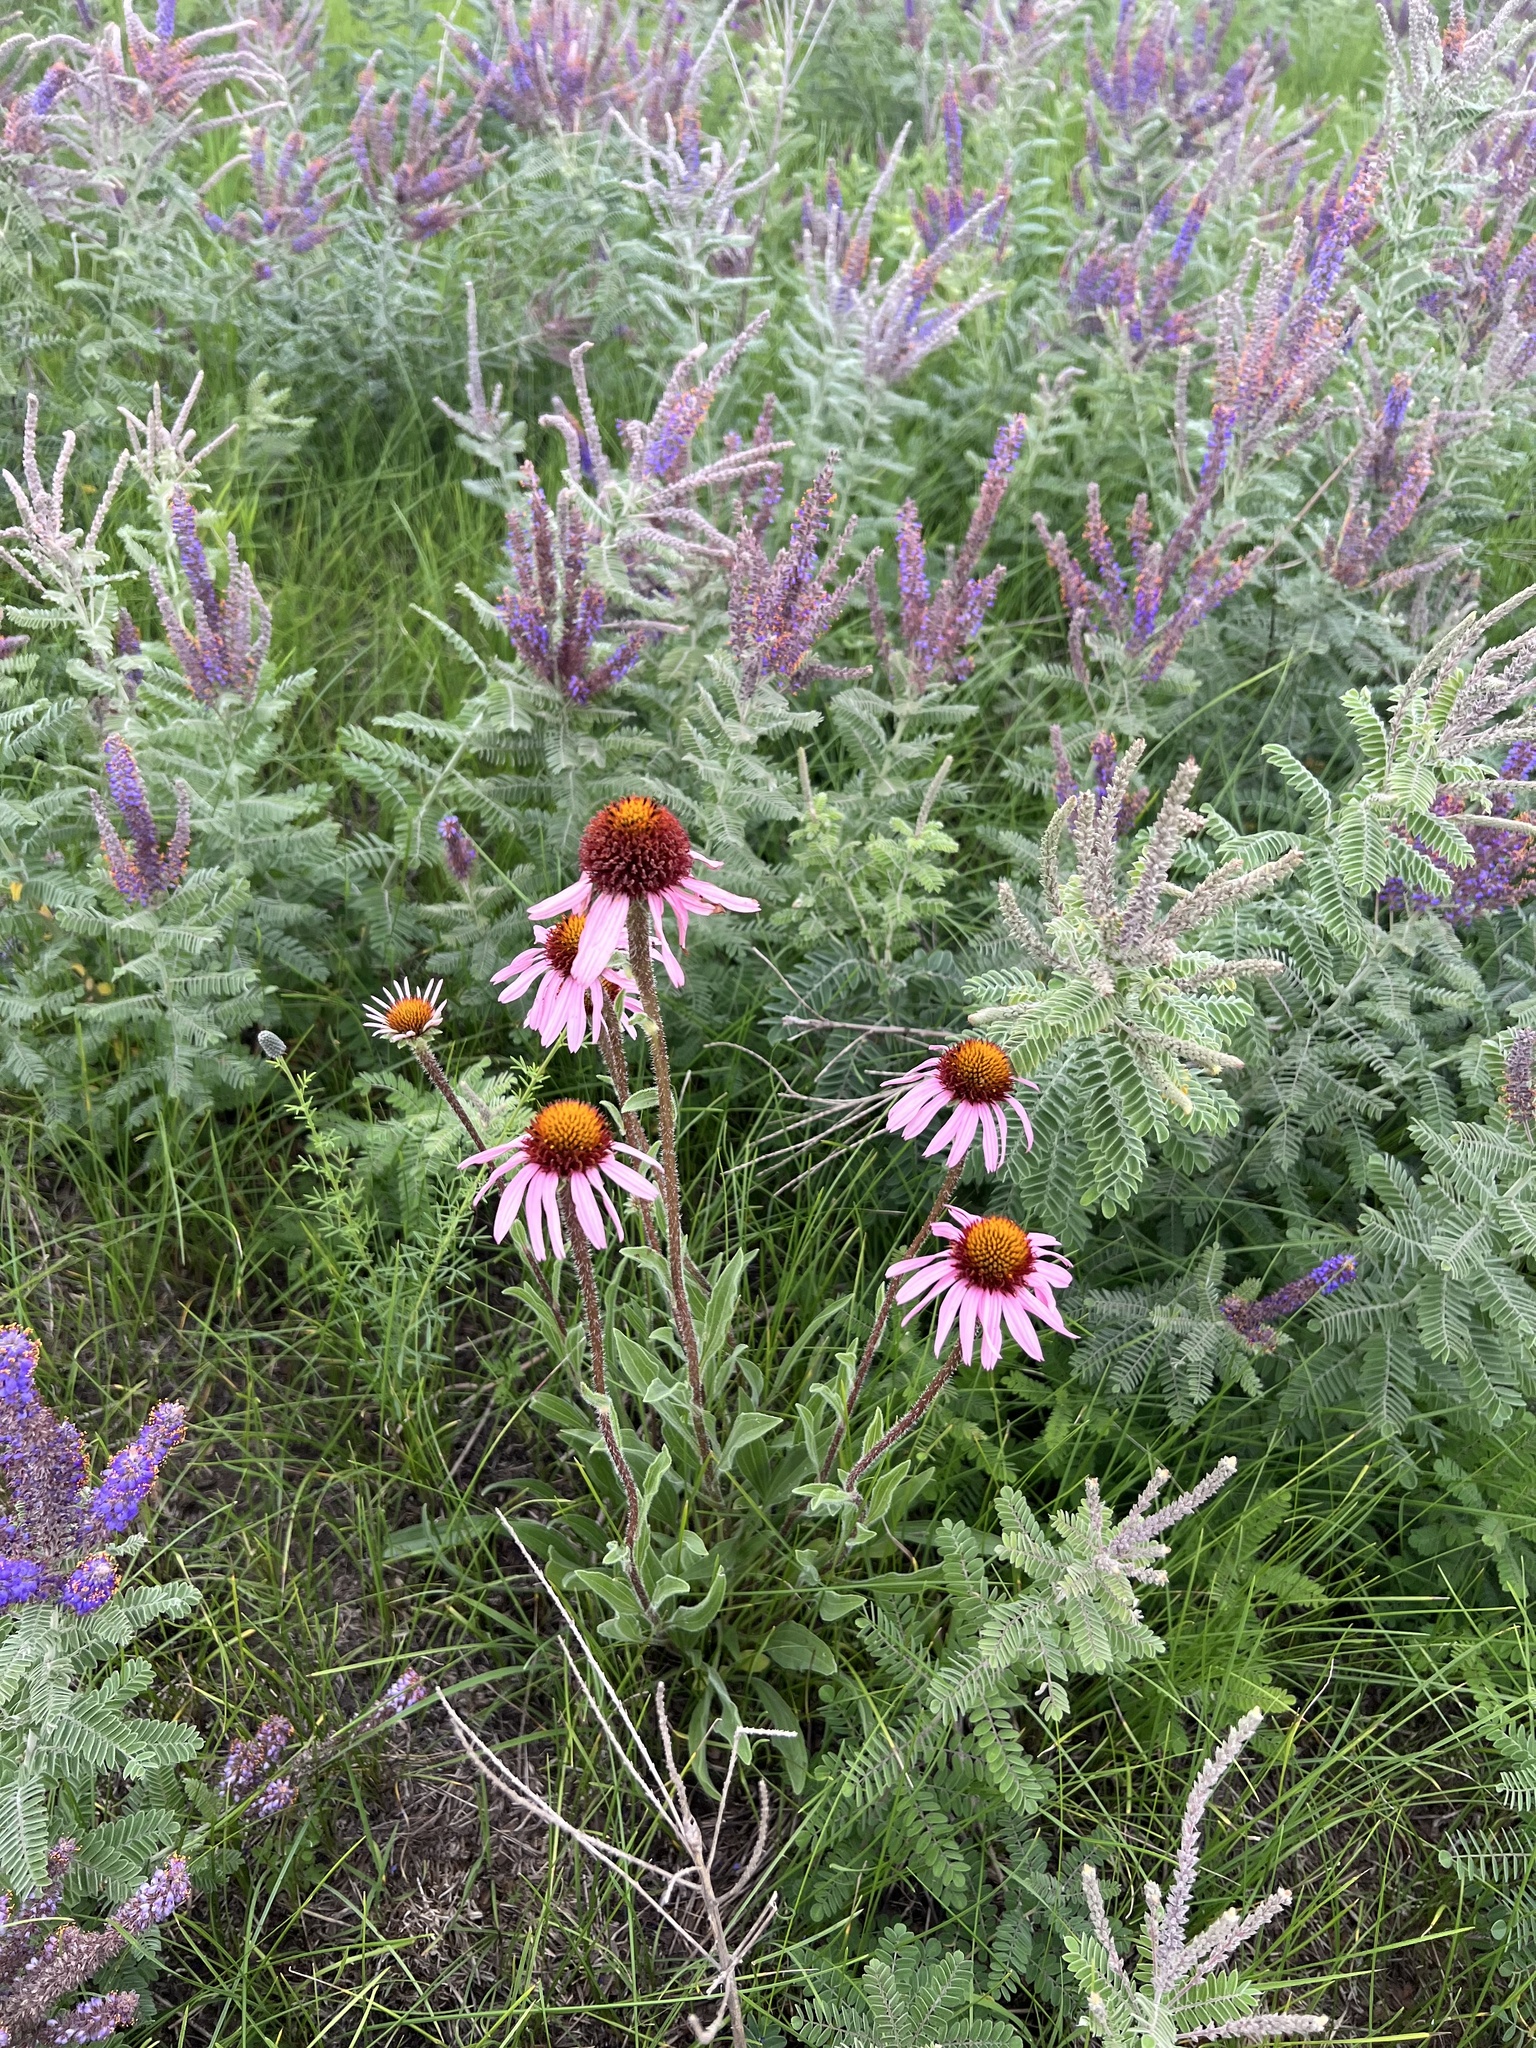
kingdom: Plantae
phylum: Tracheophyta
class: Magnoliopsida
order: Asterales
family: Asteraceae
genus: Echinacea
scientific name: Echinacea angustifolia
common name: Black-sampson echinacea
